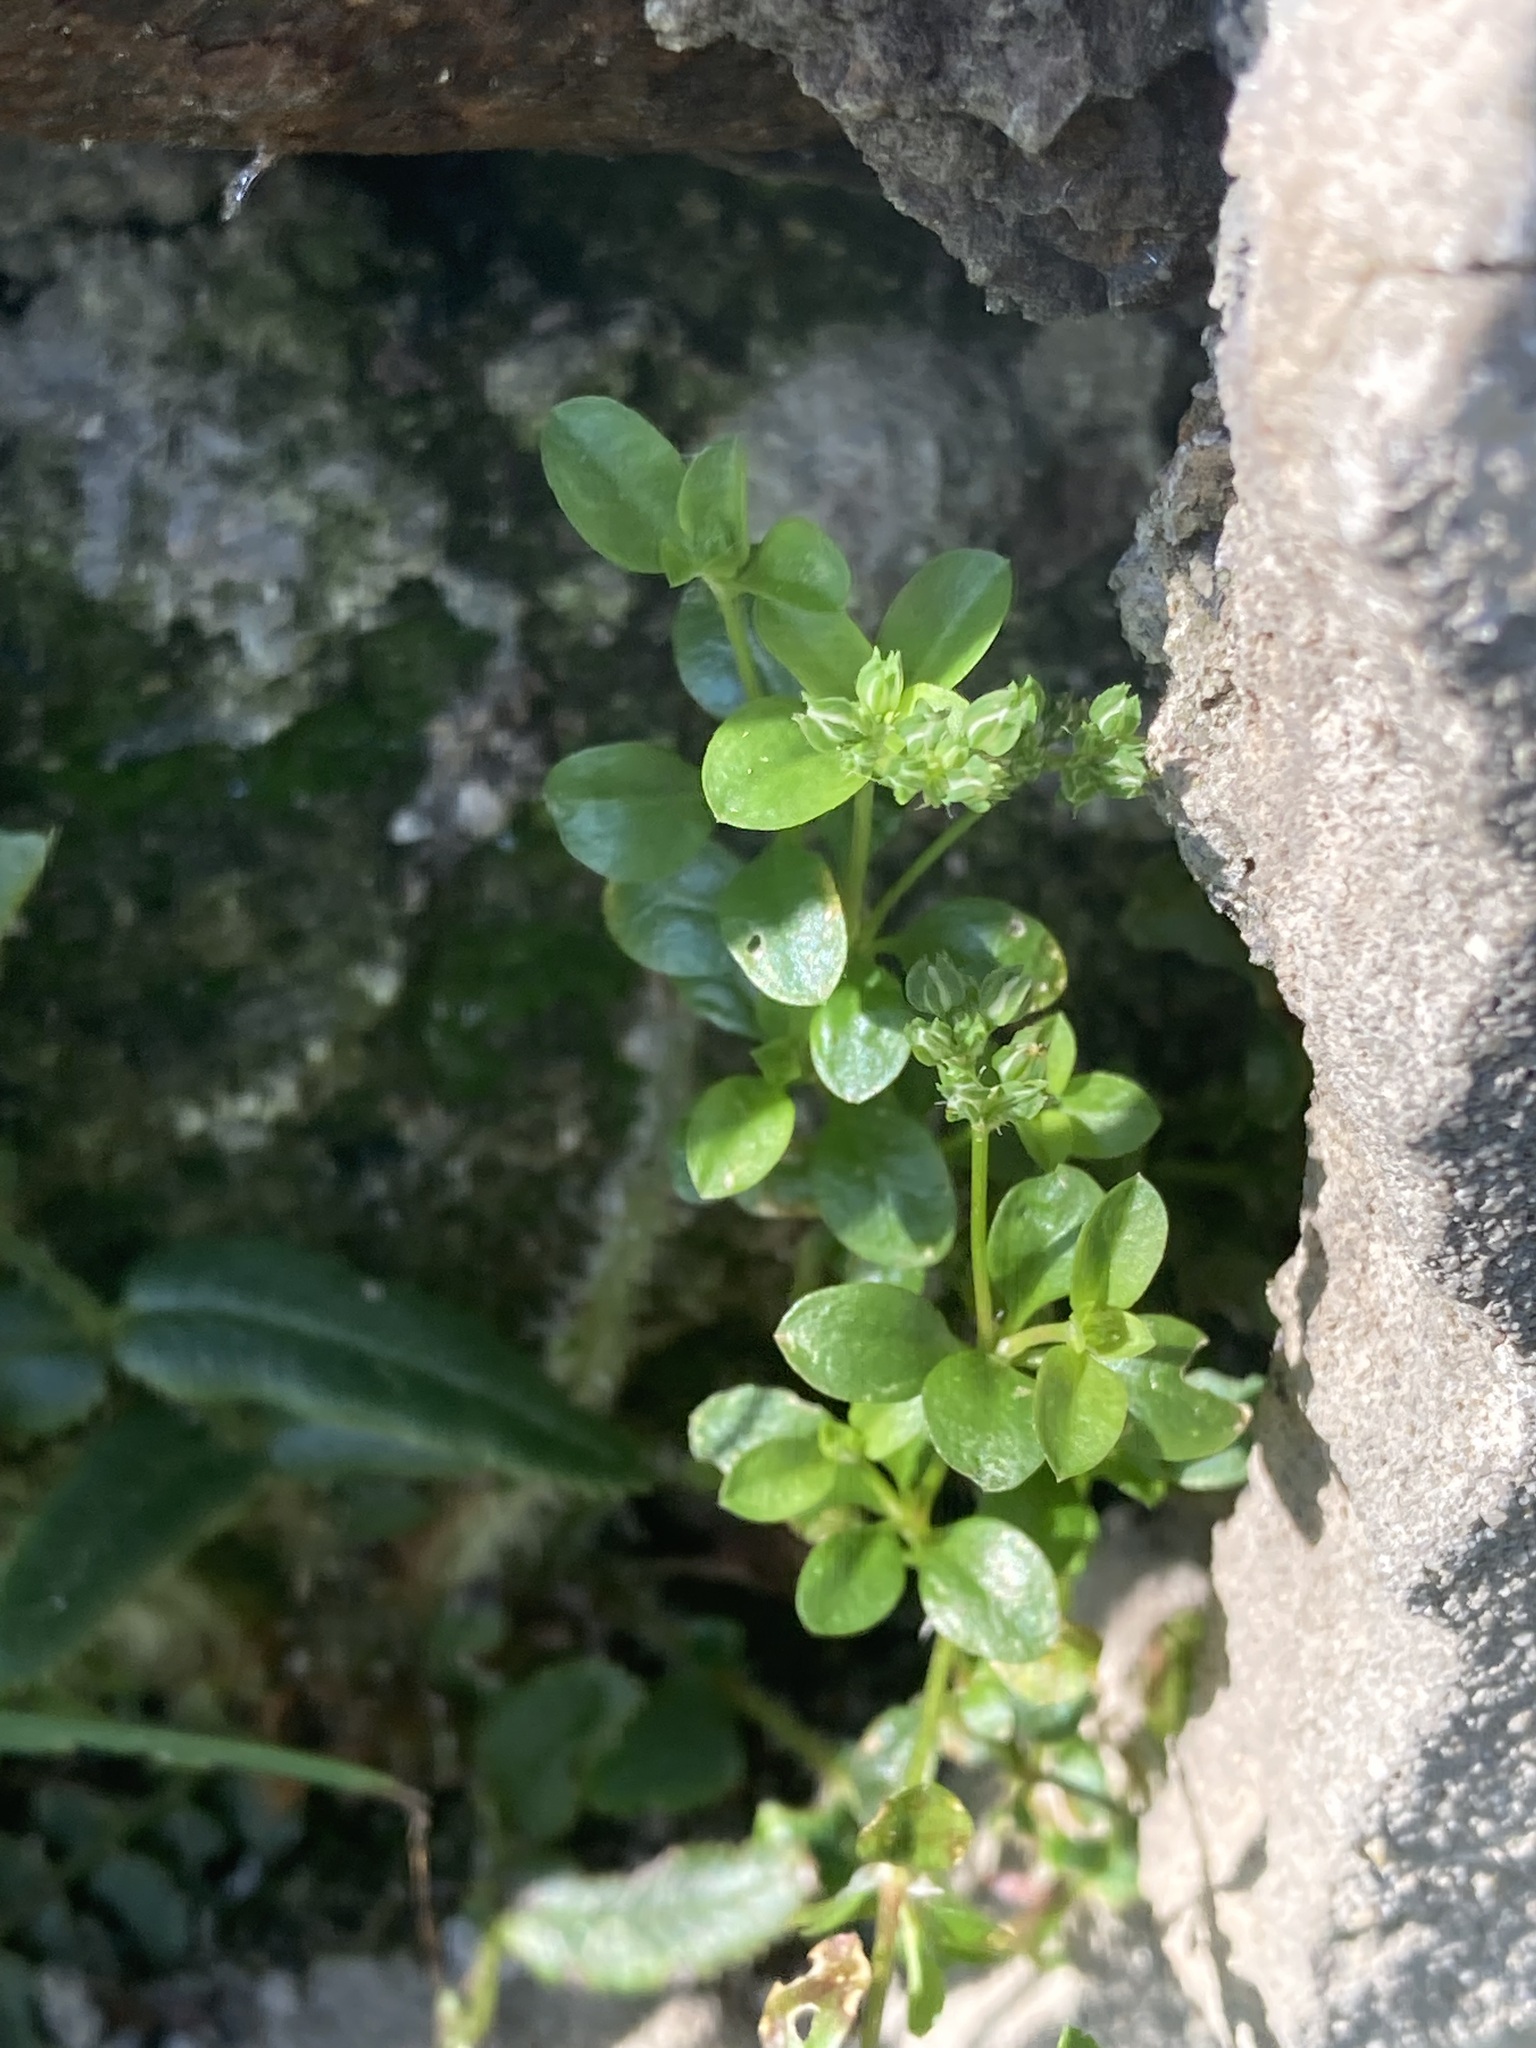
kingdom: Plantae
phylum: Tracheophyta
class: Magnoliopsida
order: Caryophyllales
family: Caryophyllaceae
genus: Polycarpon
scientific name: Polycarpon tetraphyllum
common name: Four-leaved all-seed
